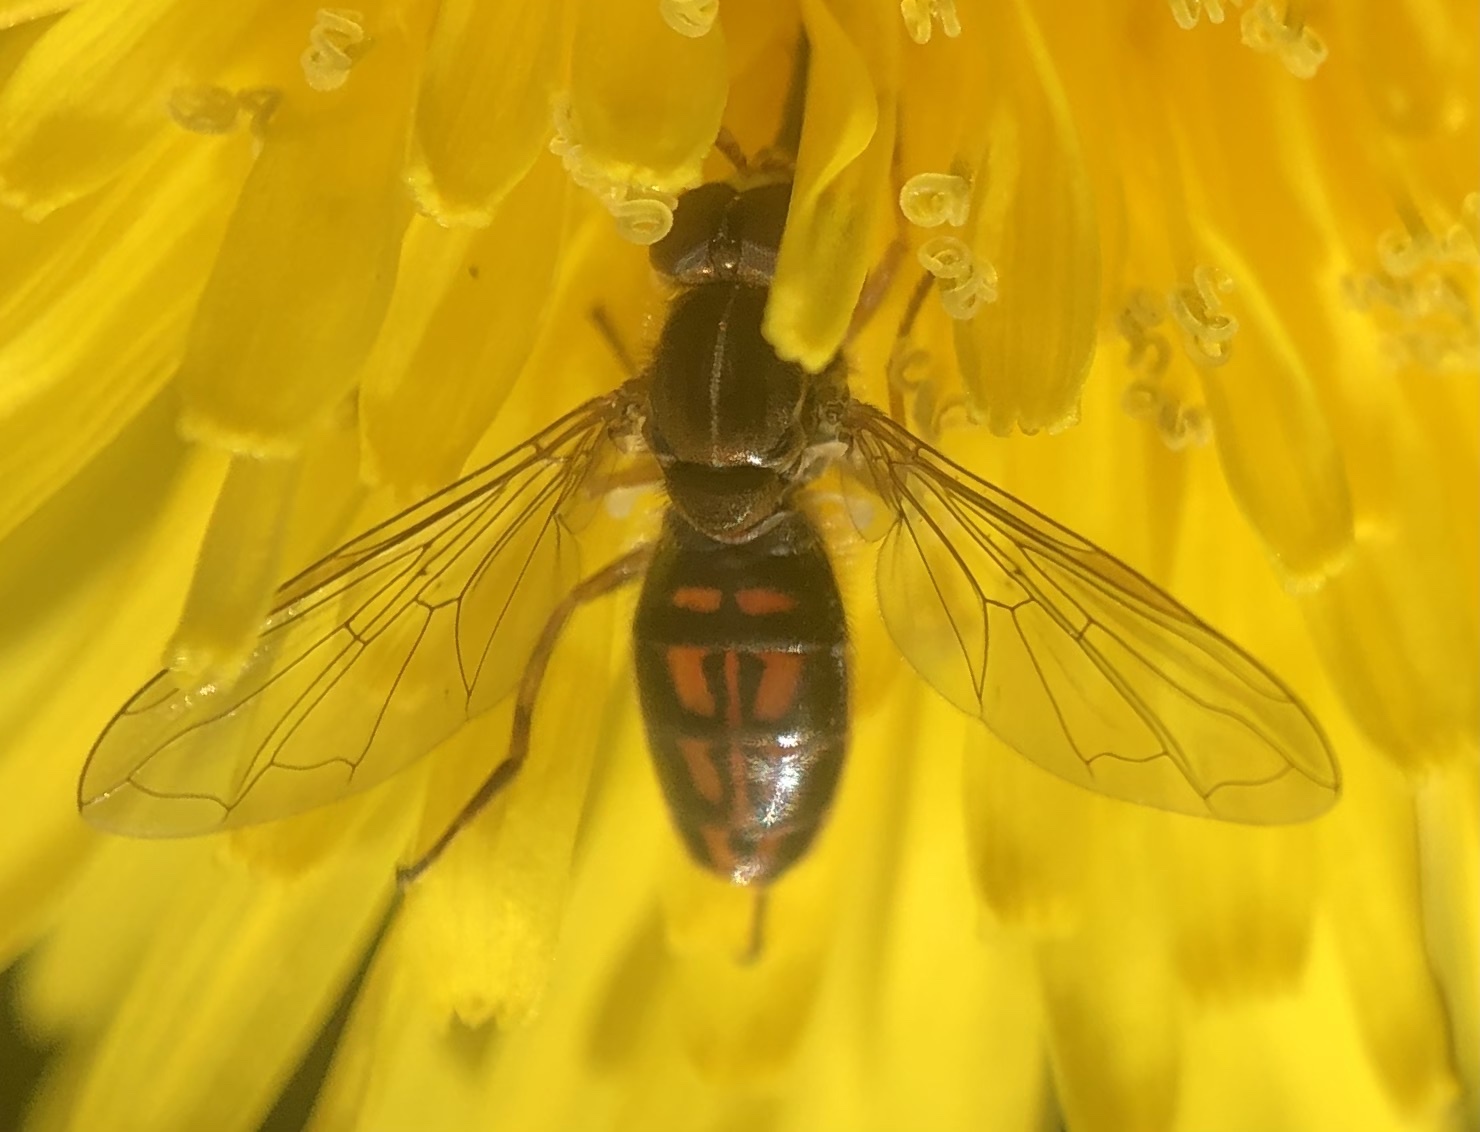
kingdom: Animalia
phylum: Arthropoda
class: Insecta
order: Diptera
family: Syrphidae
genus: Toxomerus
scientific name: Toxomerus marginatus
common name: Syrphid fly
